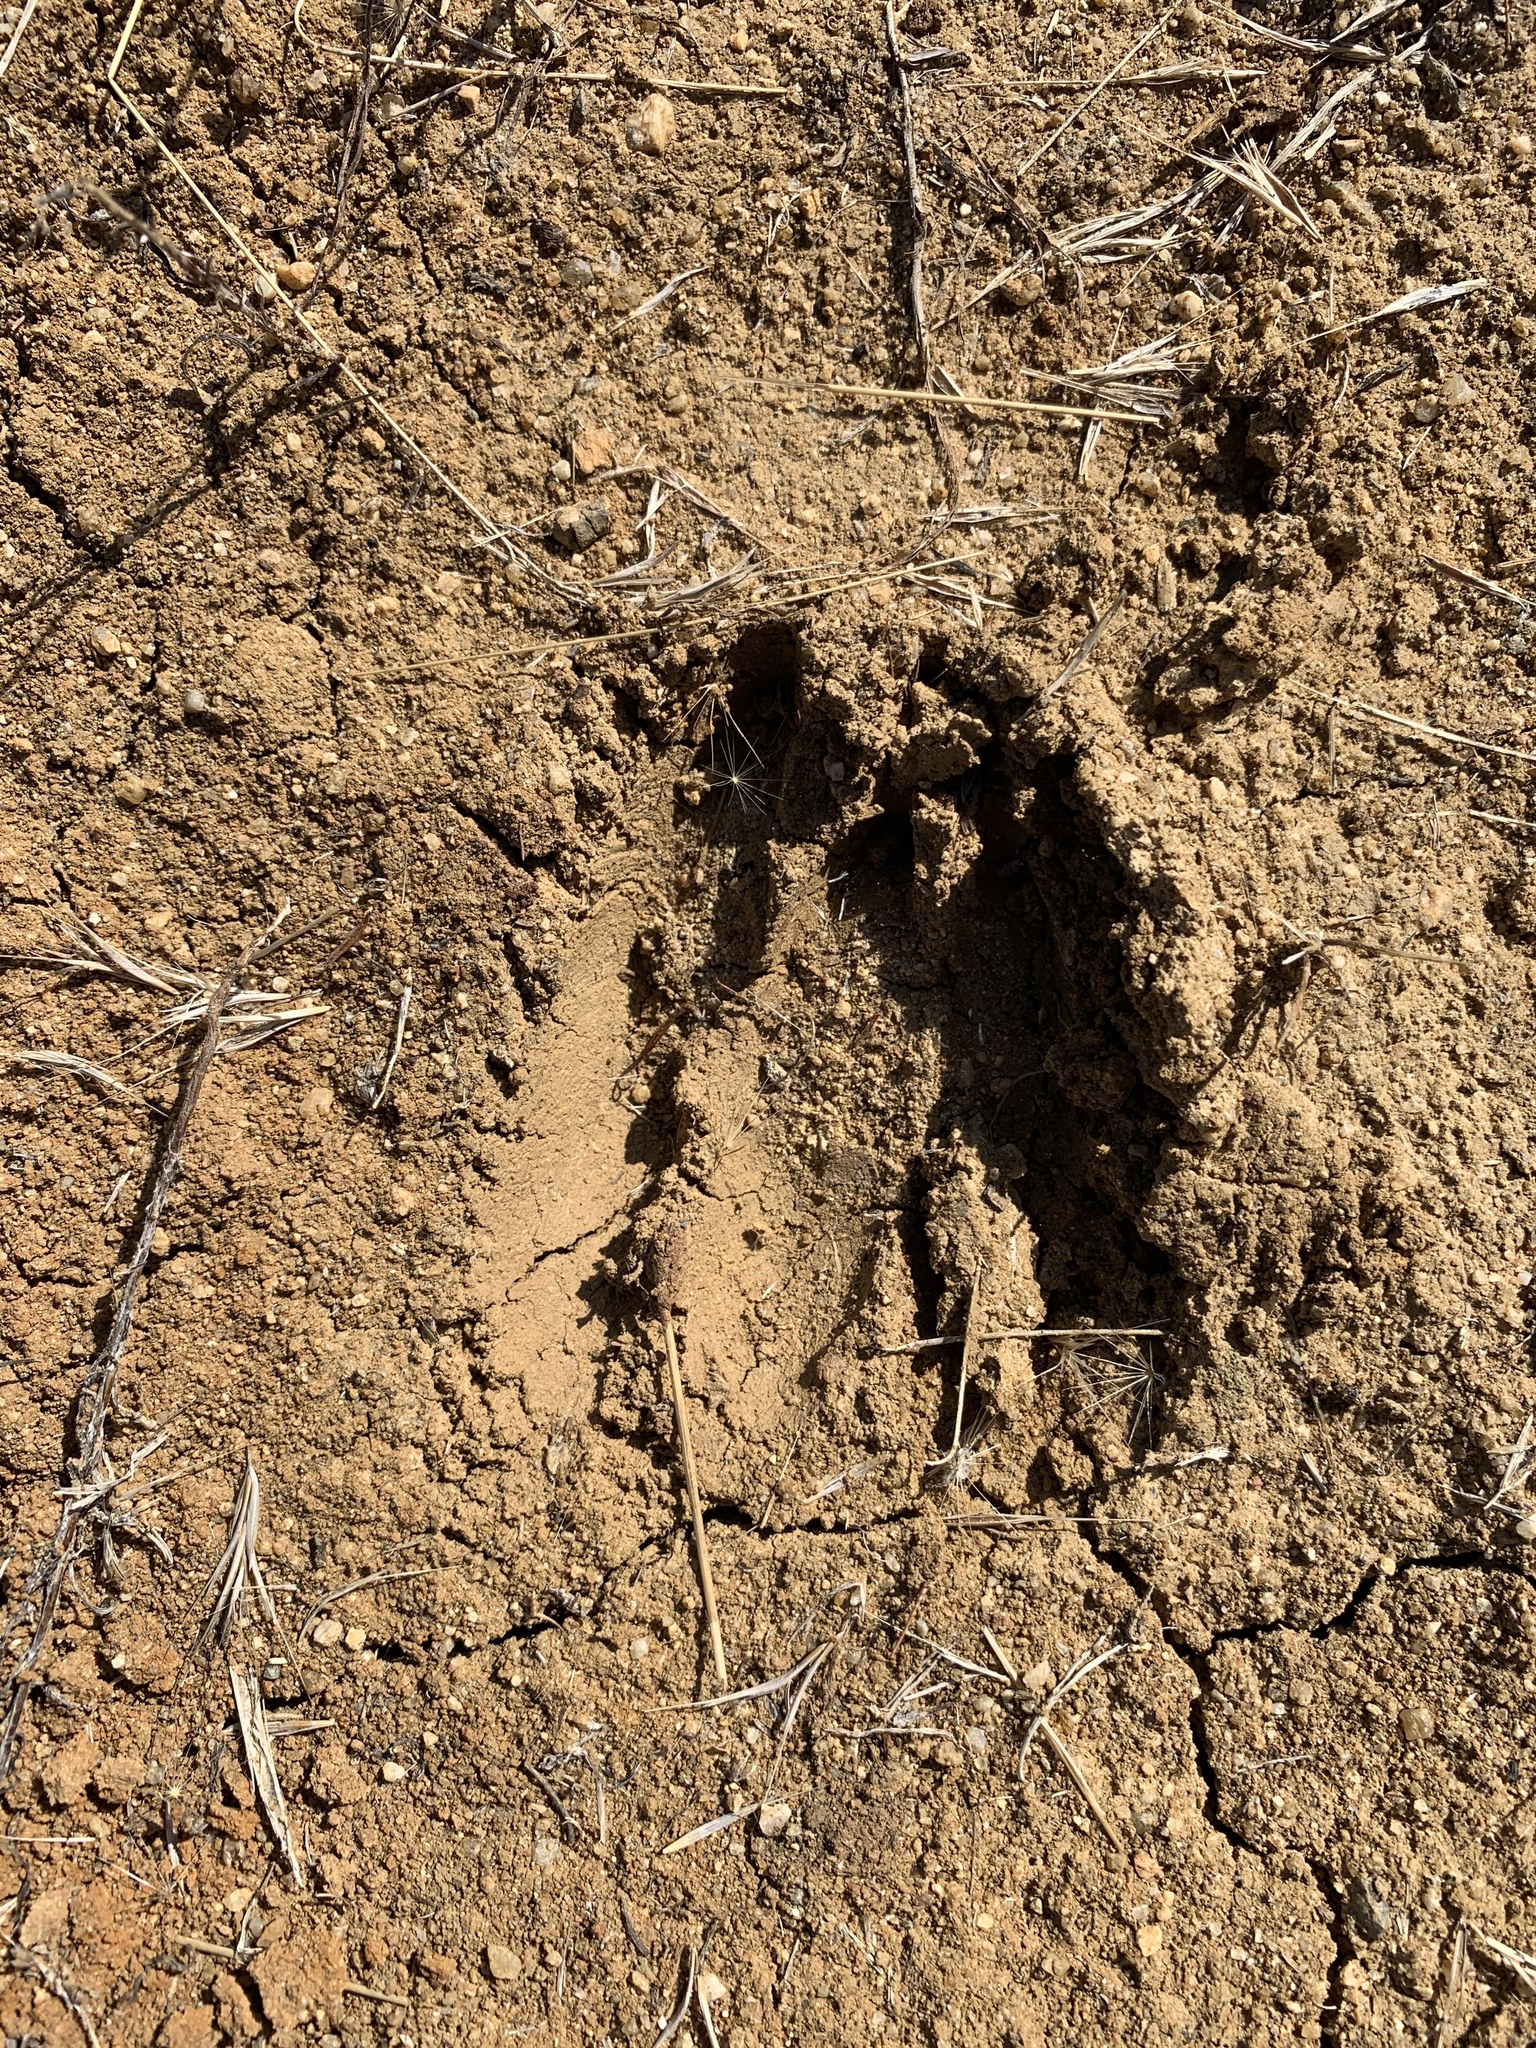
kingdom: Animalia
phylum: Chordata
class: Mammalia
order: Artiodactyla
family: Cervidae
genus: Odocoileus
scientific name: Odocoileus hemionus
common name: Mule deer
